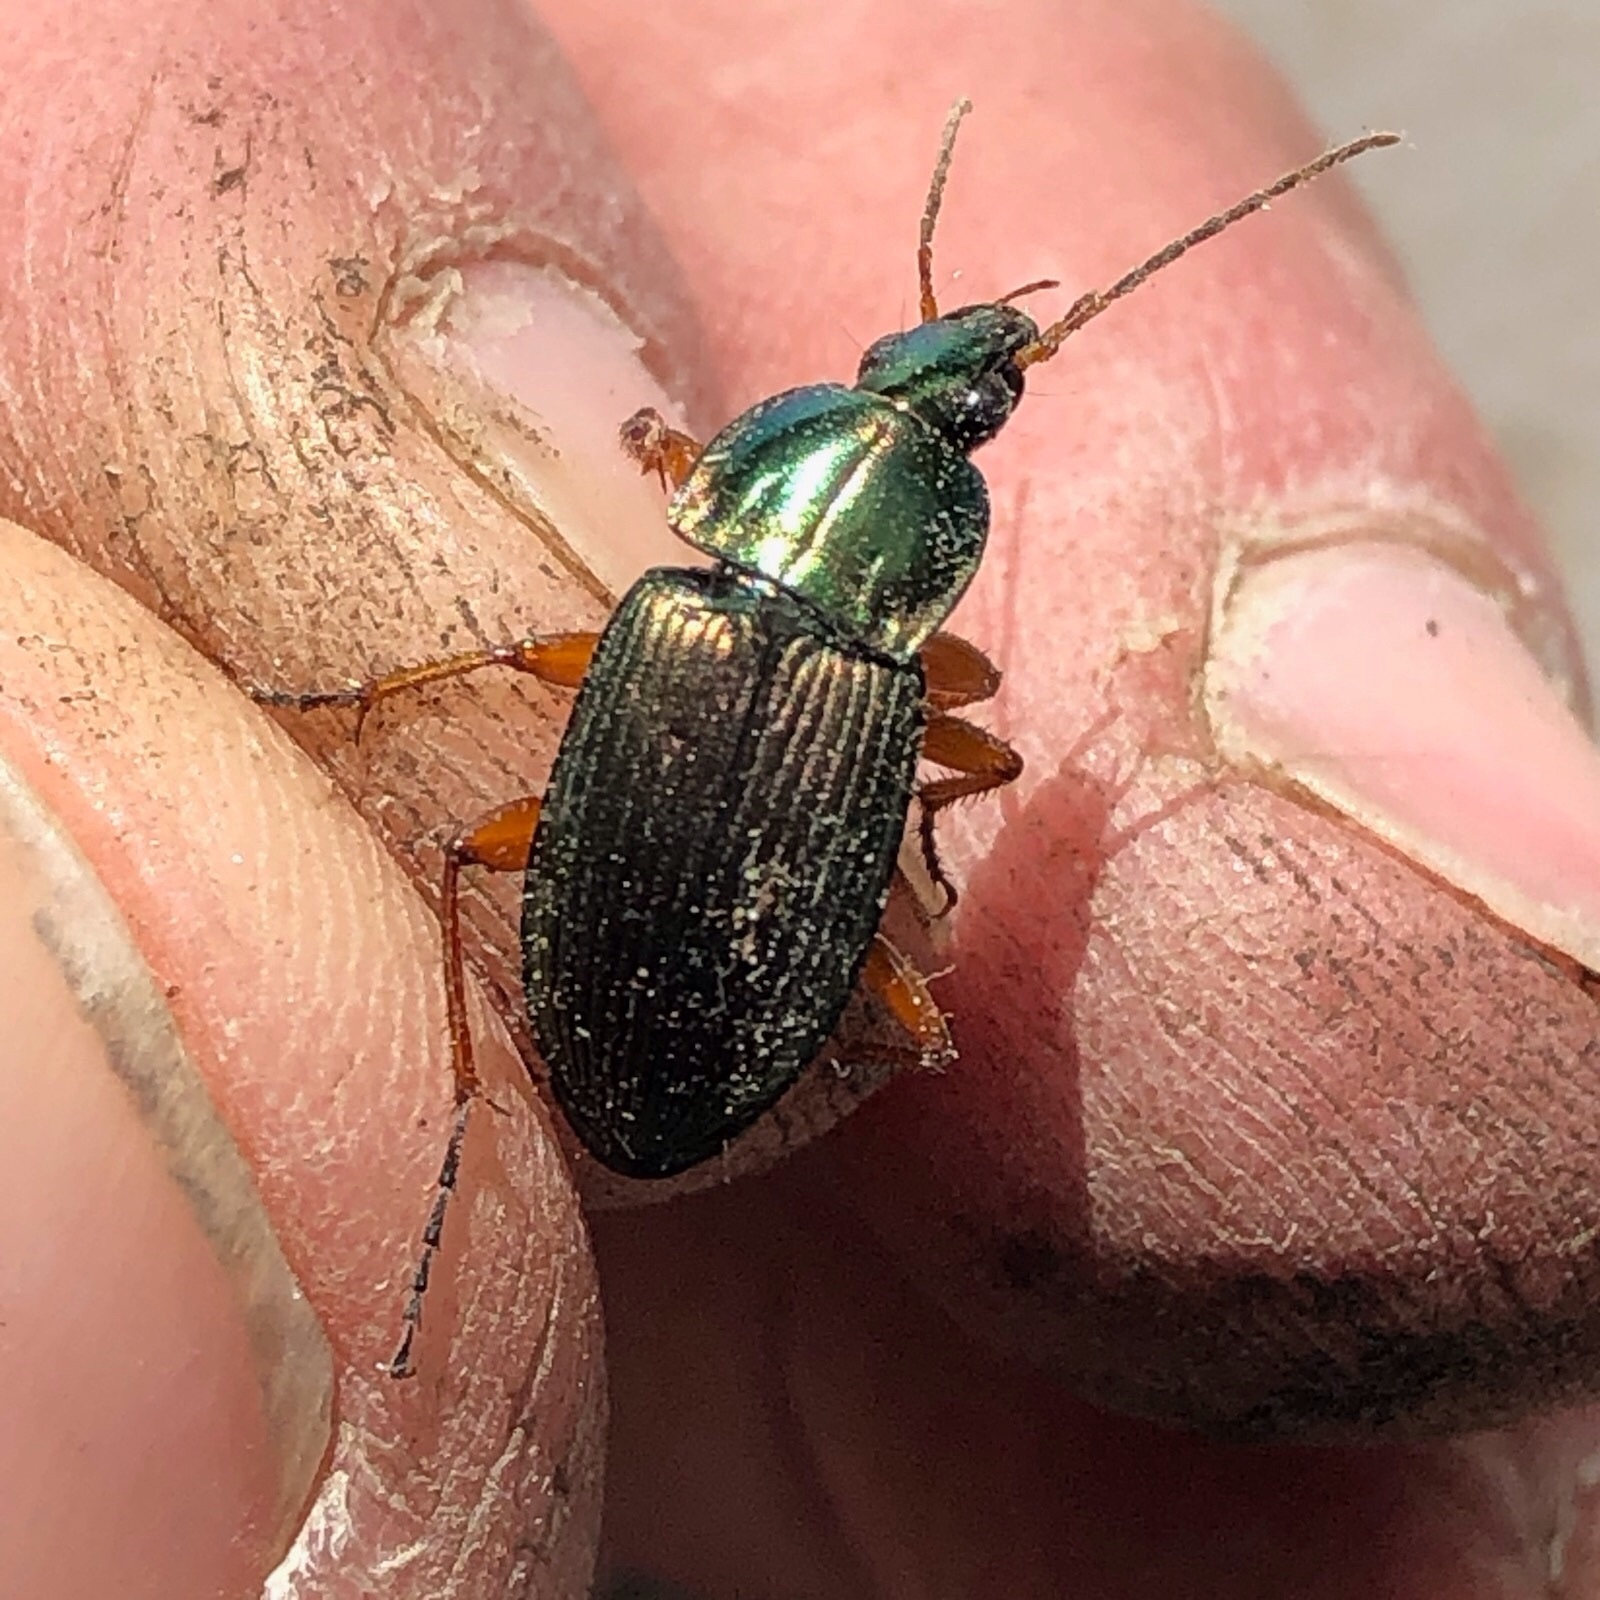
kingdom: Animalia
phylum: Arthropoda
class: Insecta
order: Coleoptera
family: Carabidae
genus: Poecilus
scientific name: Poecilus lucublandus
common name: Woodland ground beetle
